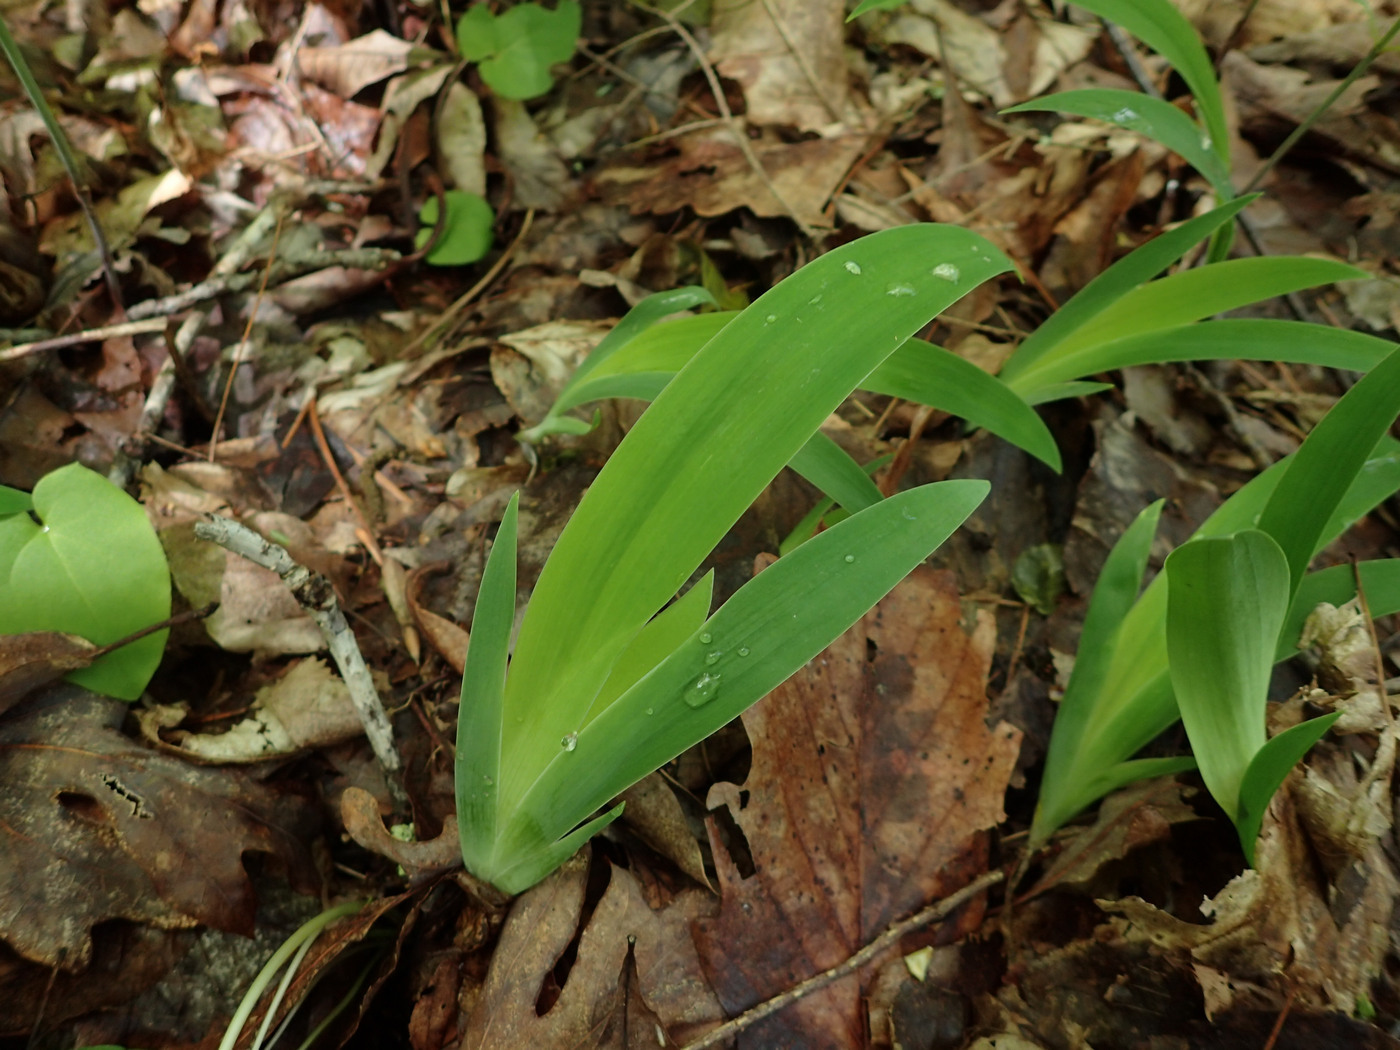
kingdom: Plantae
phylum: Tracheophyta
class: Liliopsida
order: Asparagales
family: Iridaceae
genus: Iris
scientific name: Iris cristata
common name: Crested iris
